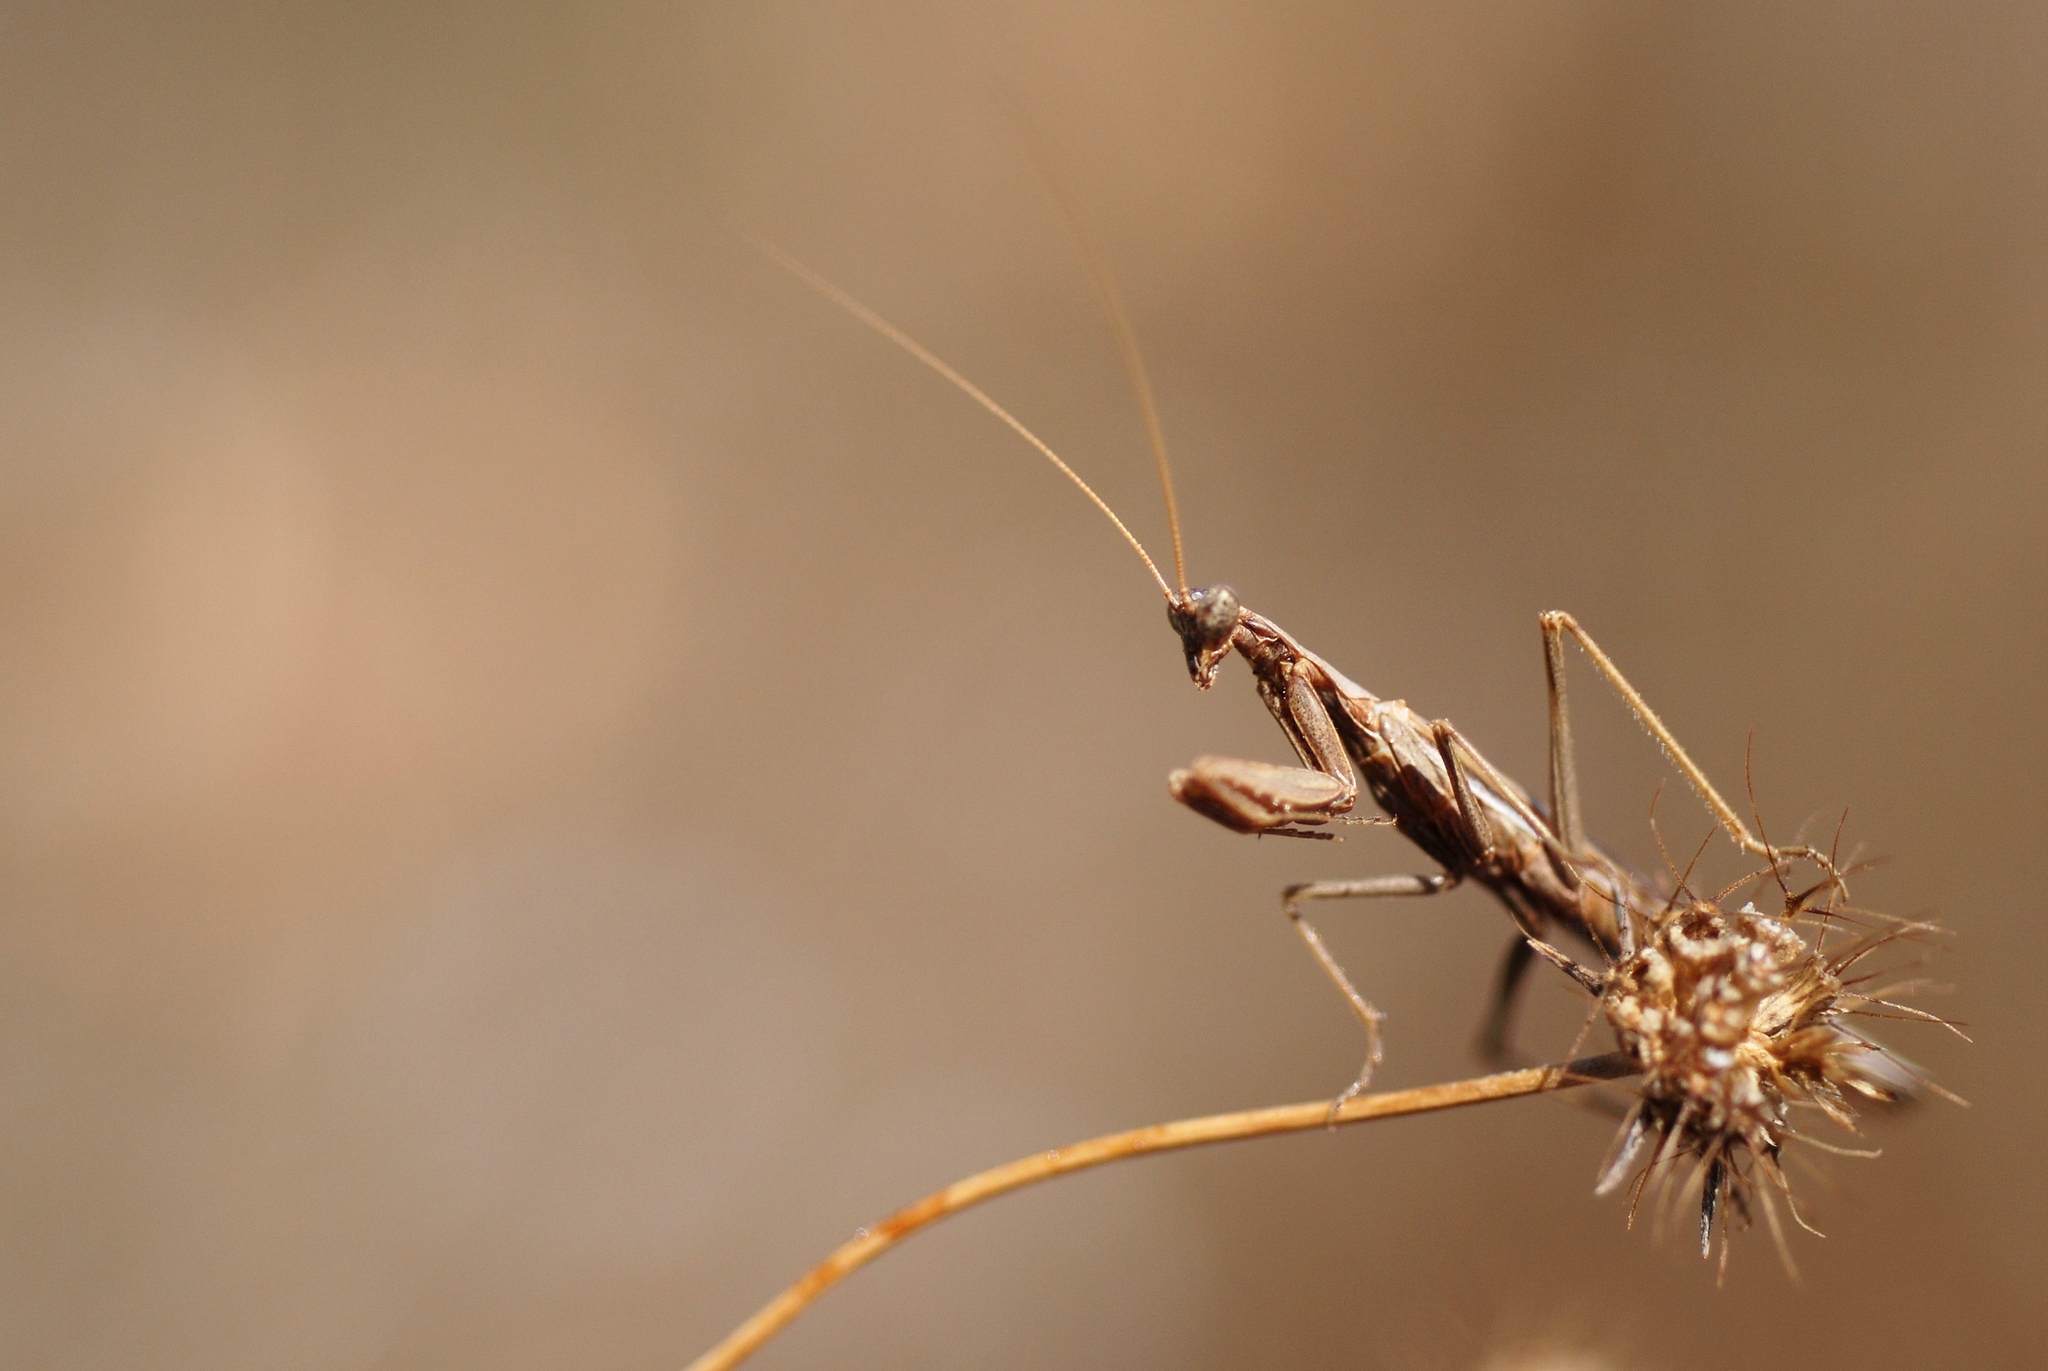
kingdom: Animalia
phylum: Arthropoda
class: Insecta
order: Mantodea
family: Amelidae
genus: Ameles
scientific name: Ameles decolor
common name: Dwarf mantis
